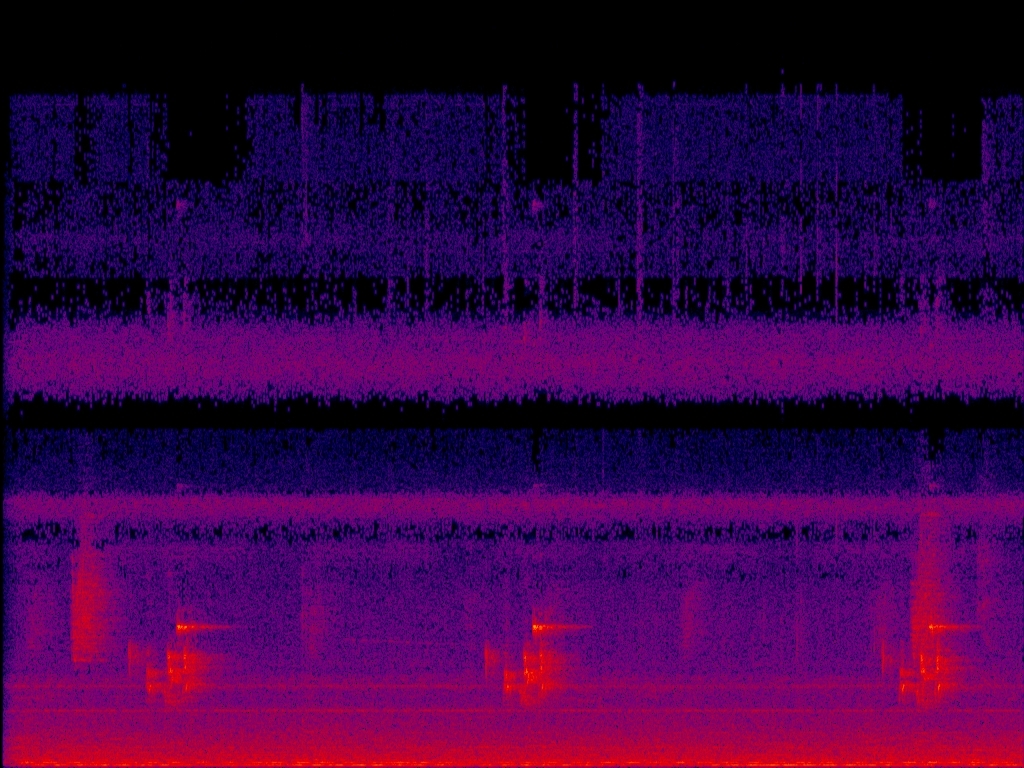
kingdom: Animalia
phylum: Chordata
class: Aves
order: Passeriformes
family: Pycnonotidae
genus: Pycnonotus
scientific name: Pycnonotus taivanus
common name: Styan's bulbul
